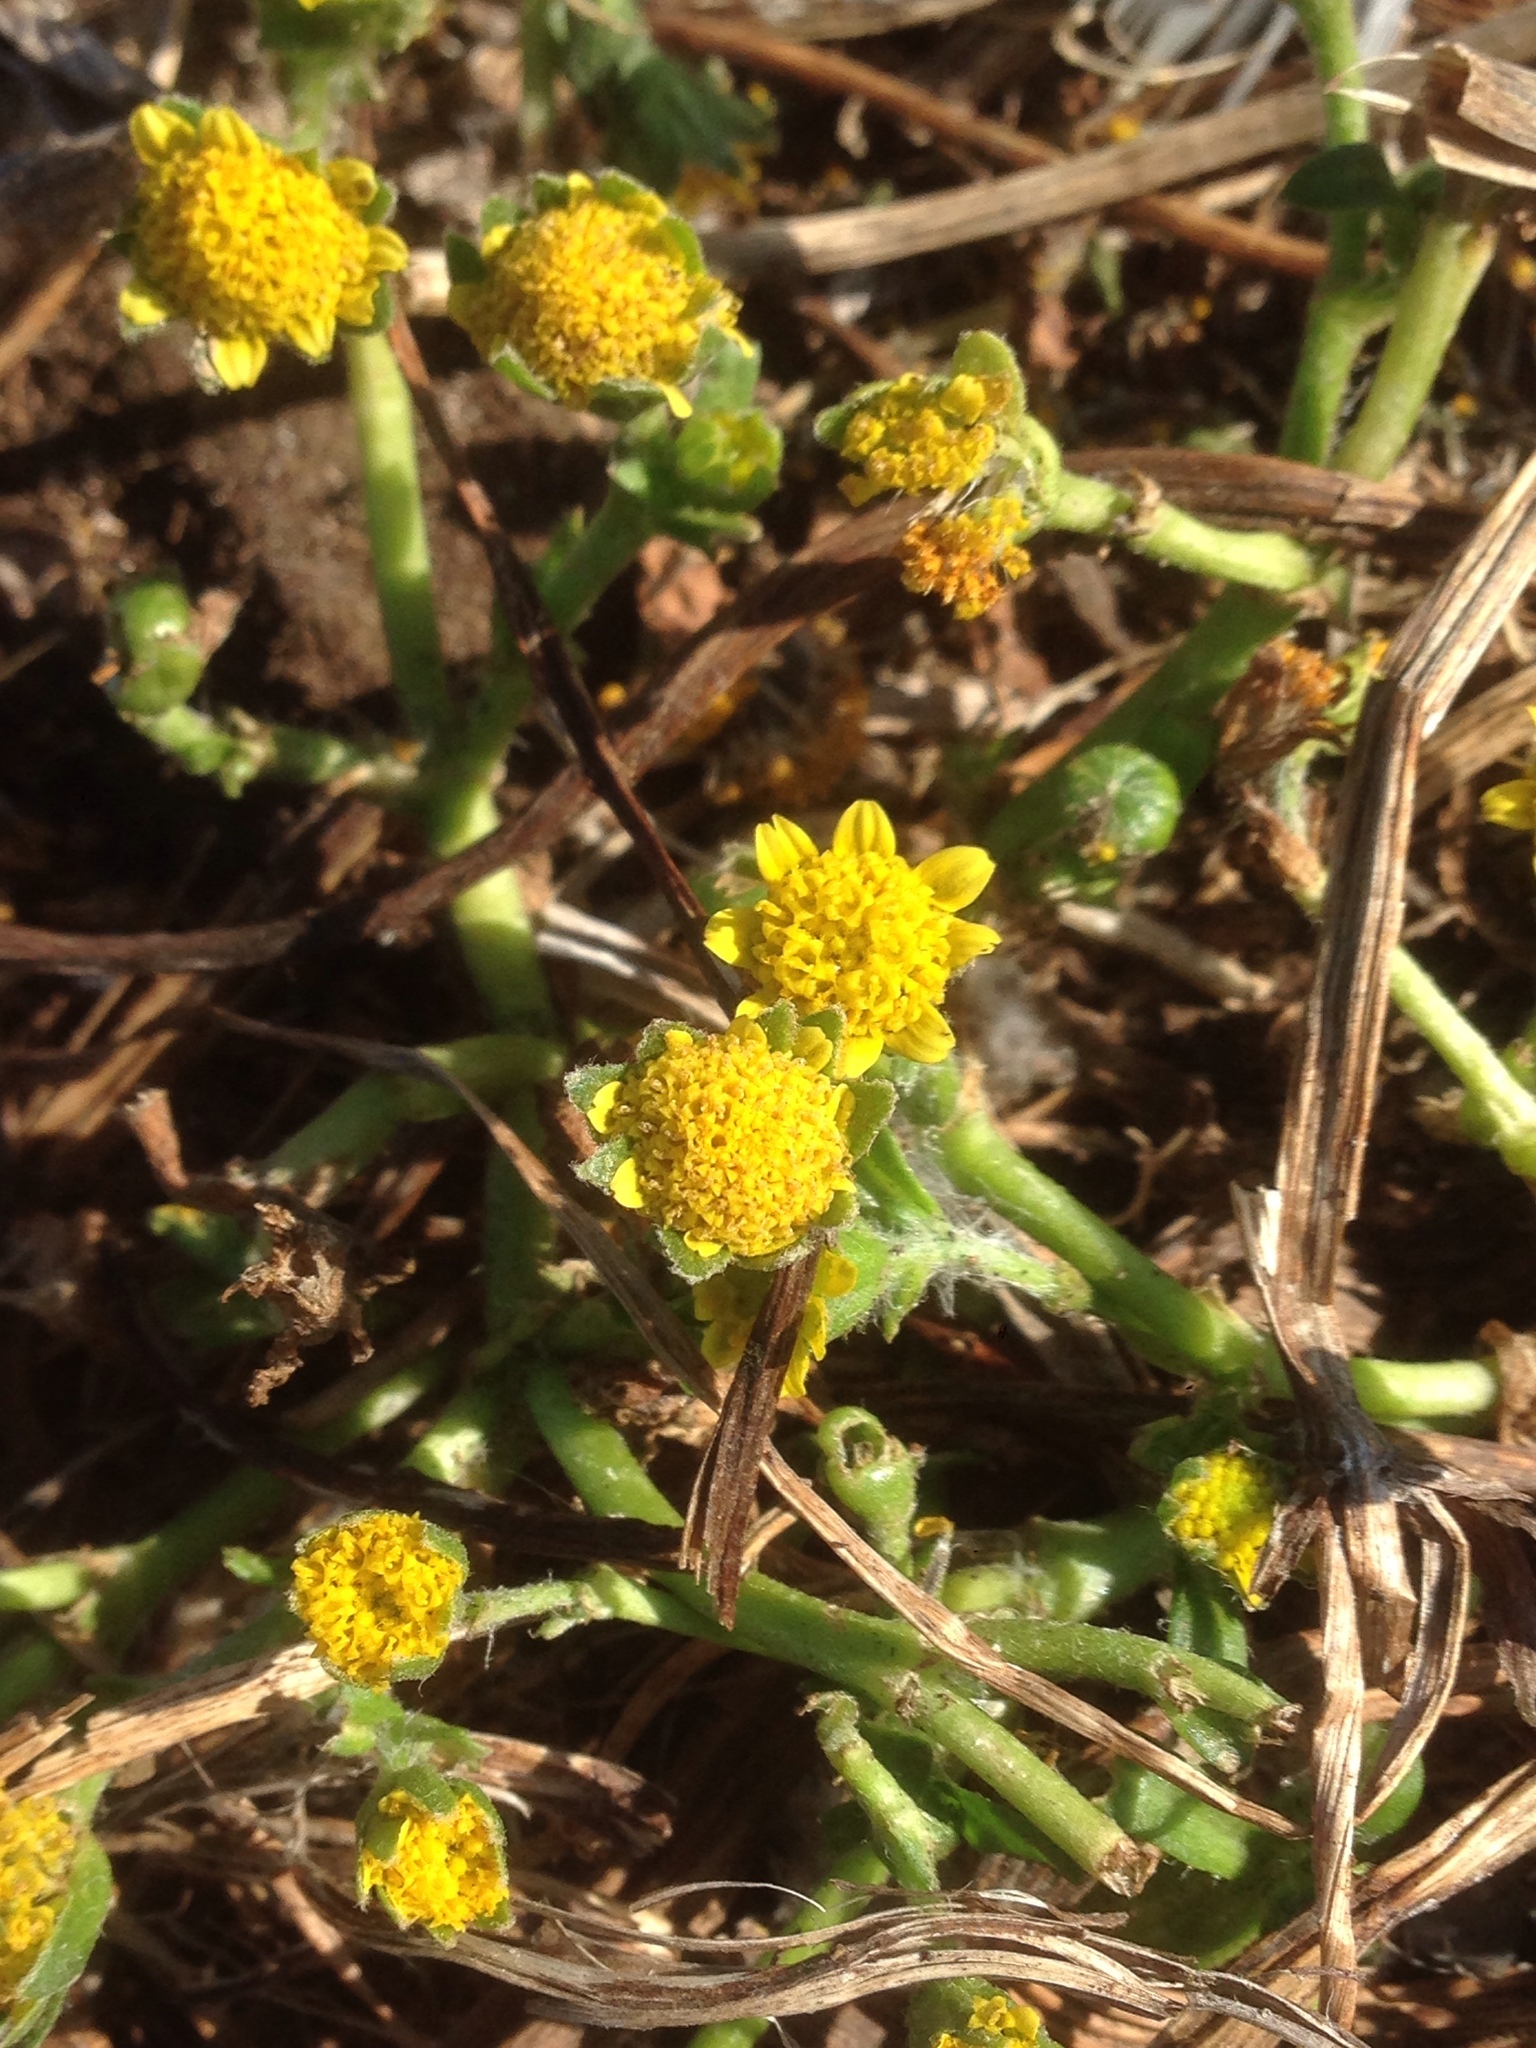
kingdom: Plantae
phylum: Tracheophyta
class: Magnoliopsida
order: Asterales
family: Asteraceae
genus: Lasthenia
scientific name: Lasthenia maritima
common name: Hairy goldfields
